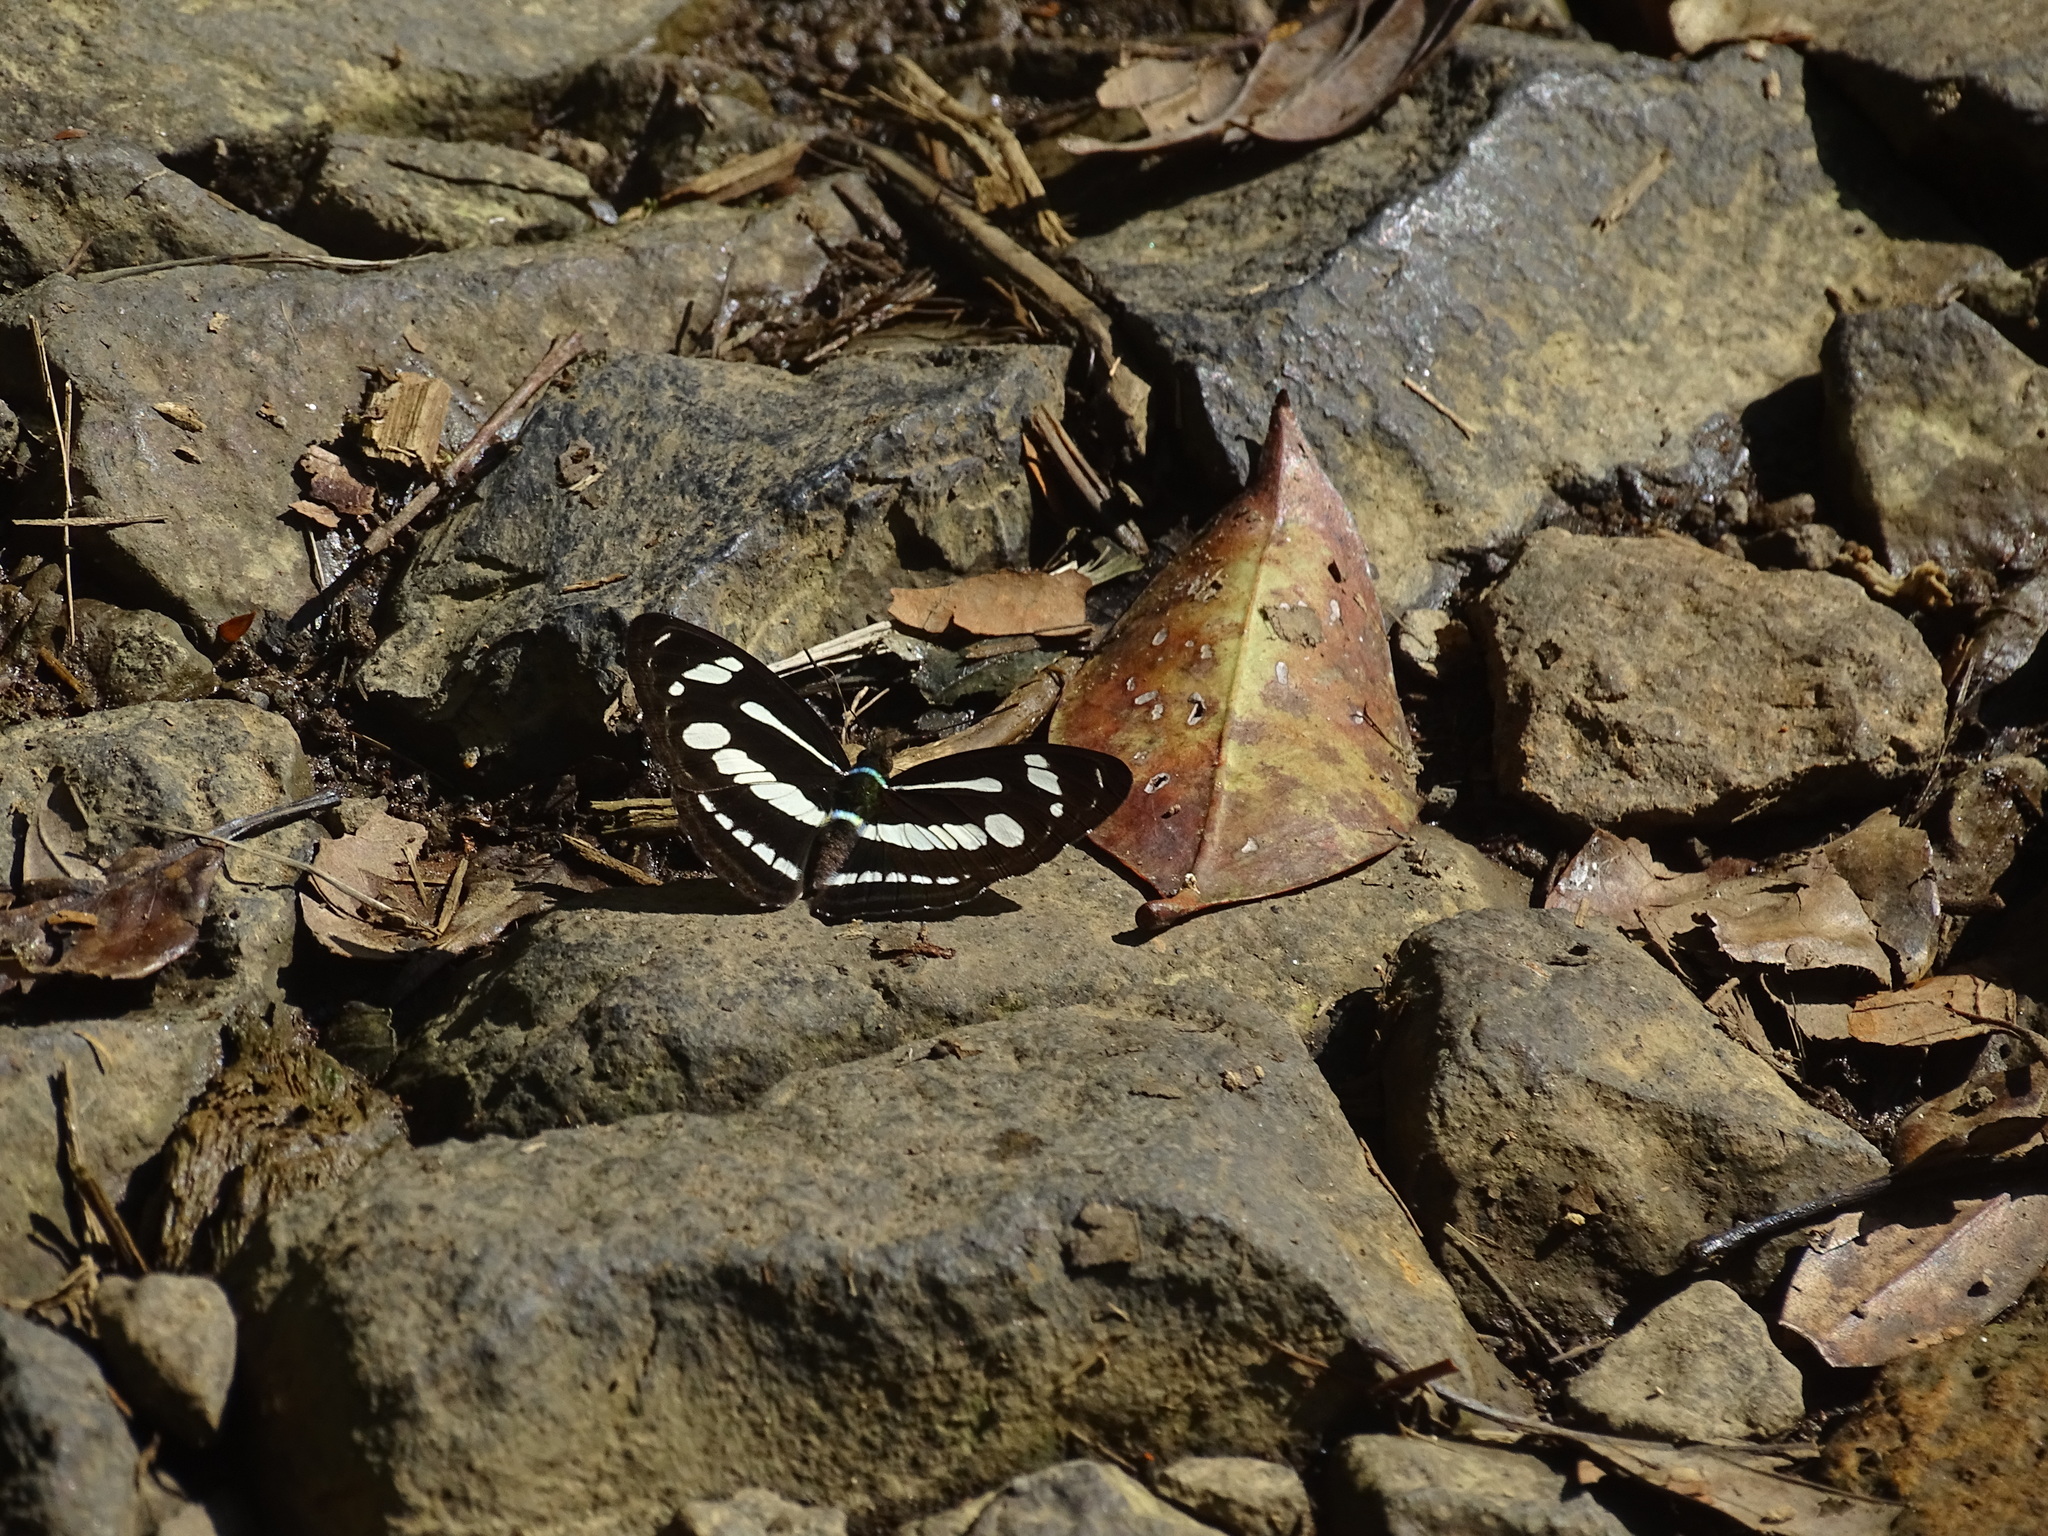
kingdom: Animalia
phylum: Arthropoda
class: Insecta
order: Lepidoptera
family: Nymphalidae
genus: Parathyma
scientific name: Parathyma pravara
